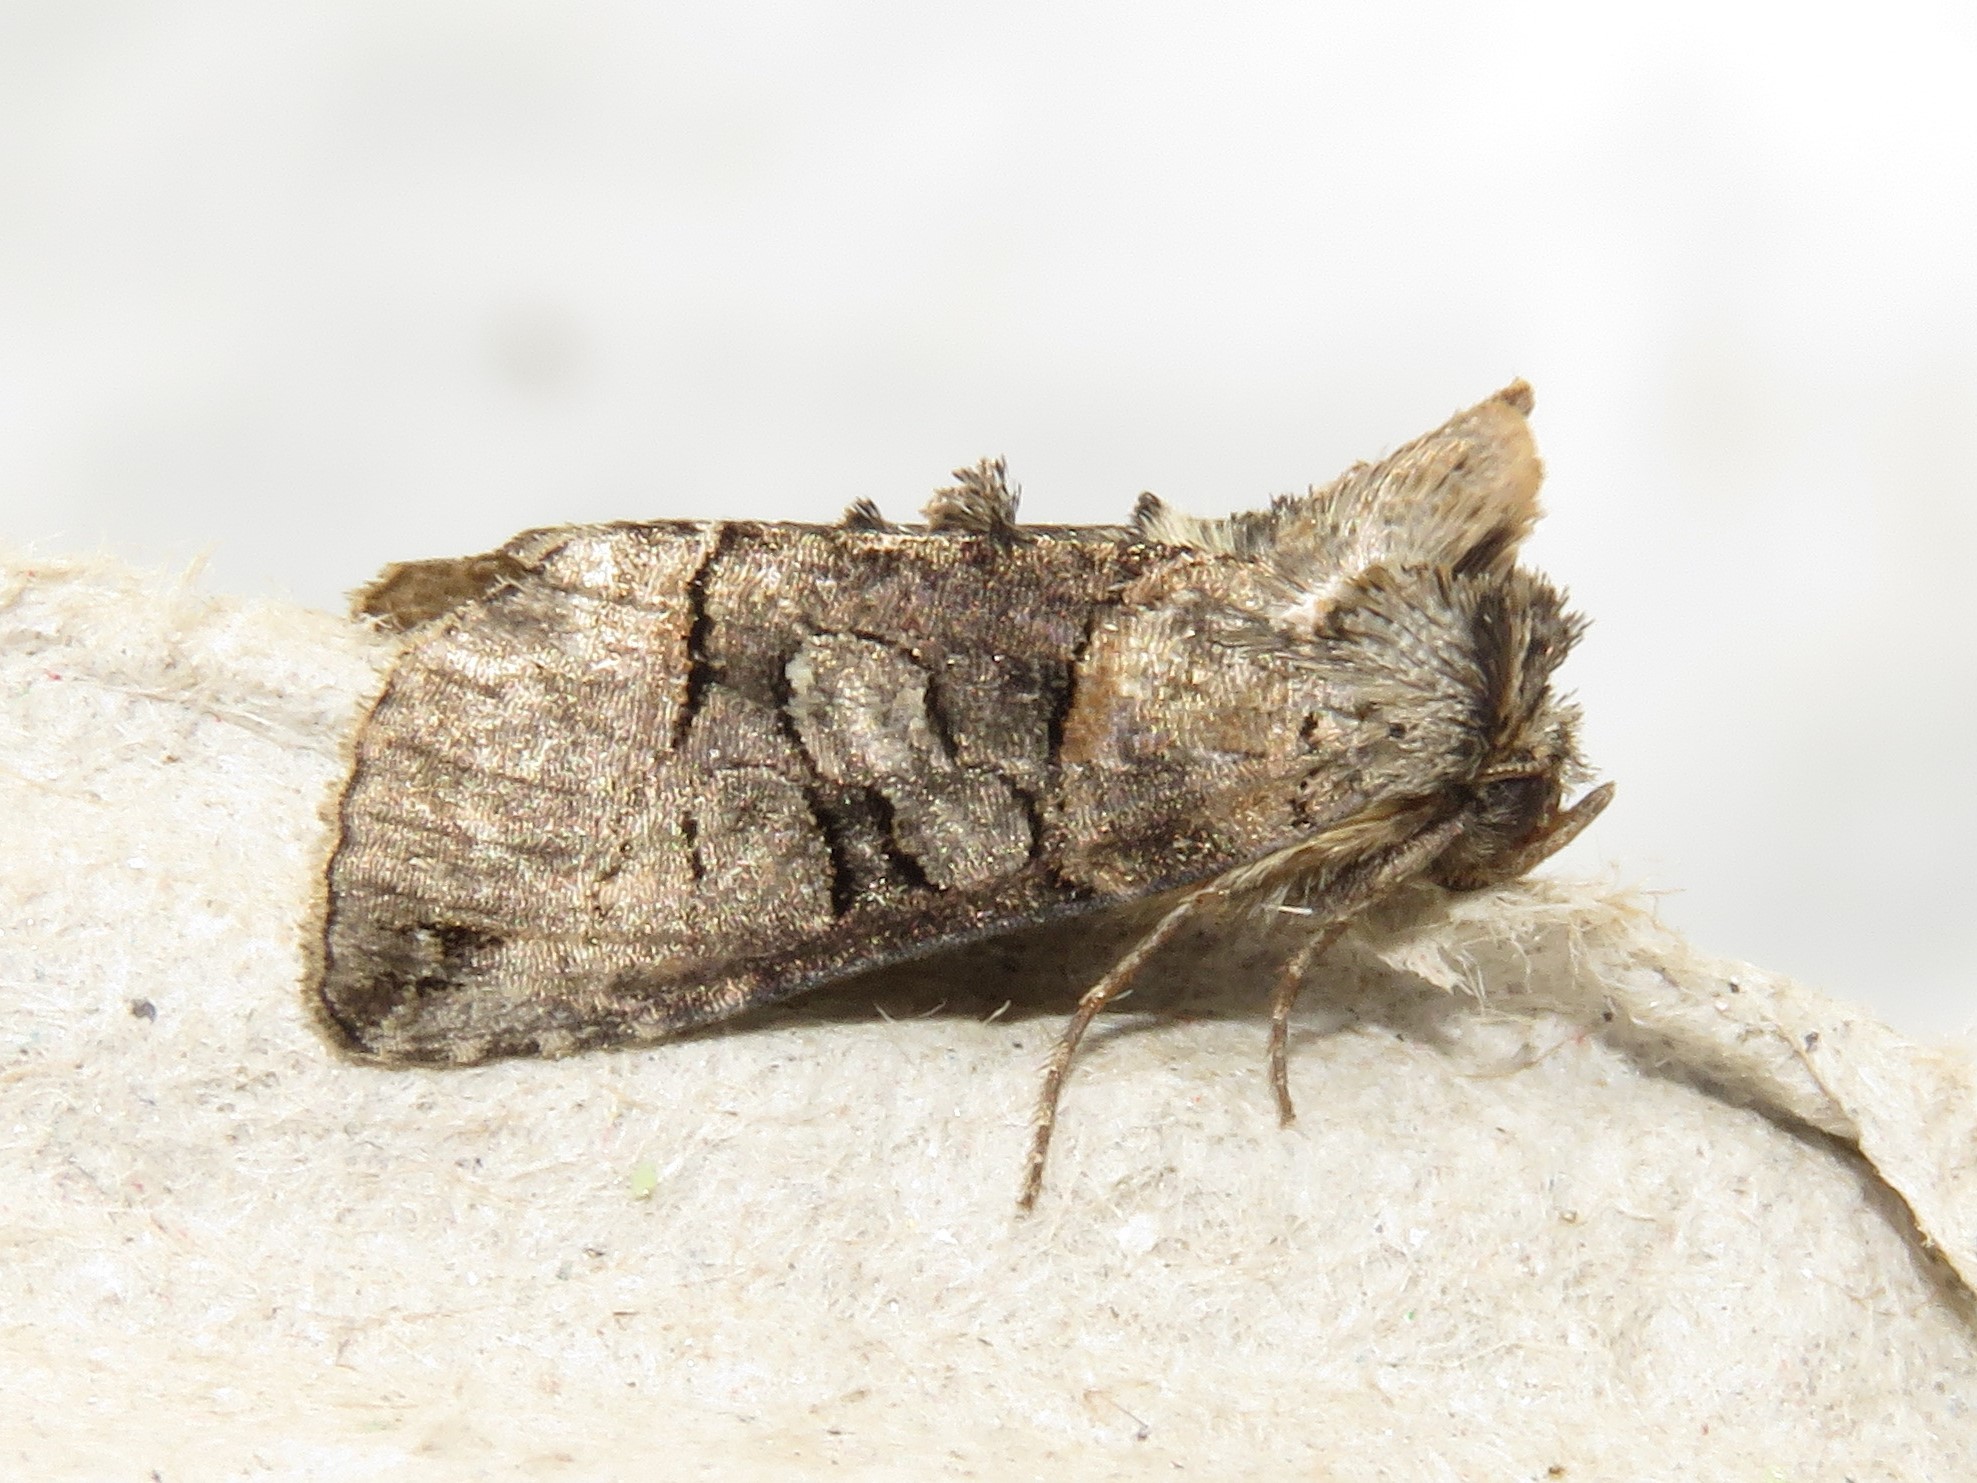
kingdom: Animalia
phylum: Arthropoda
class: Insecta
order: Lepidoptera
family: Noctuidae
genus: Abrostola
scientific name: Abrostola urentis
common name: Spectacled nettle moth
